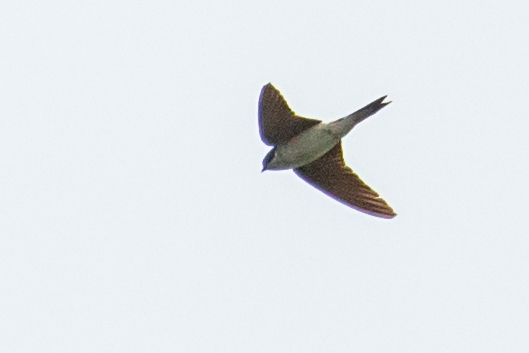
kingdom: Animalia
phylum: Chordata
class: Aves
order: Passeriformes
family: Hirundinidae
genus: Delichon
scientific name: Delichon urbicum
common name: Common house martin
